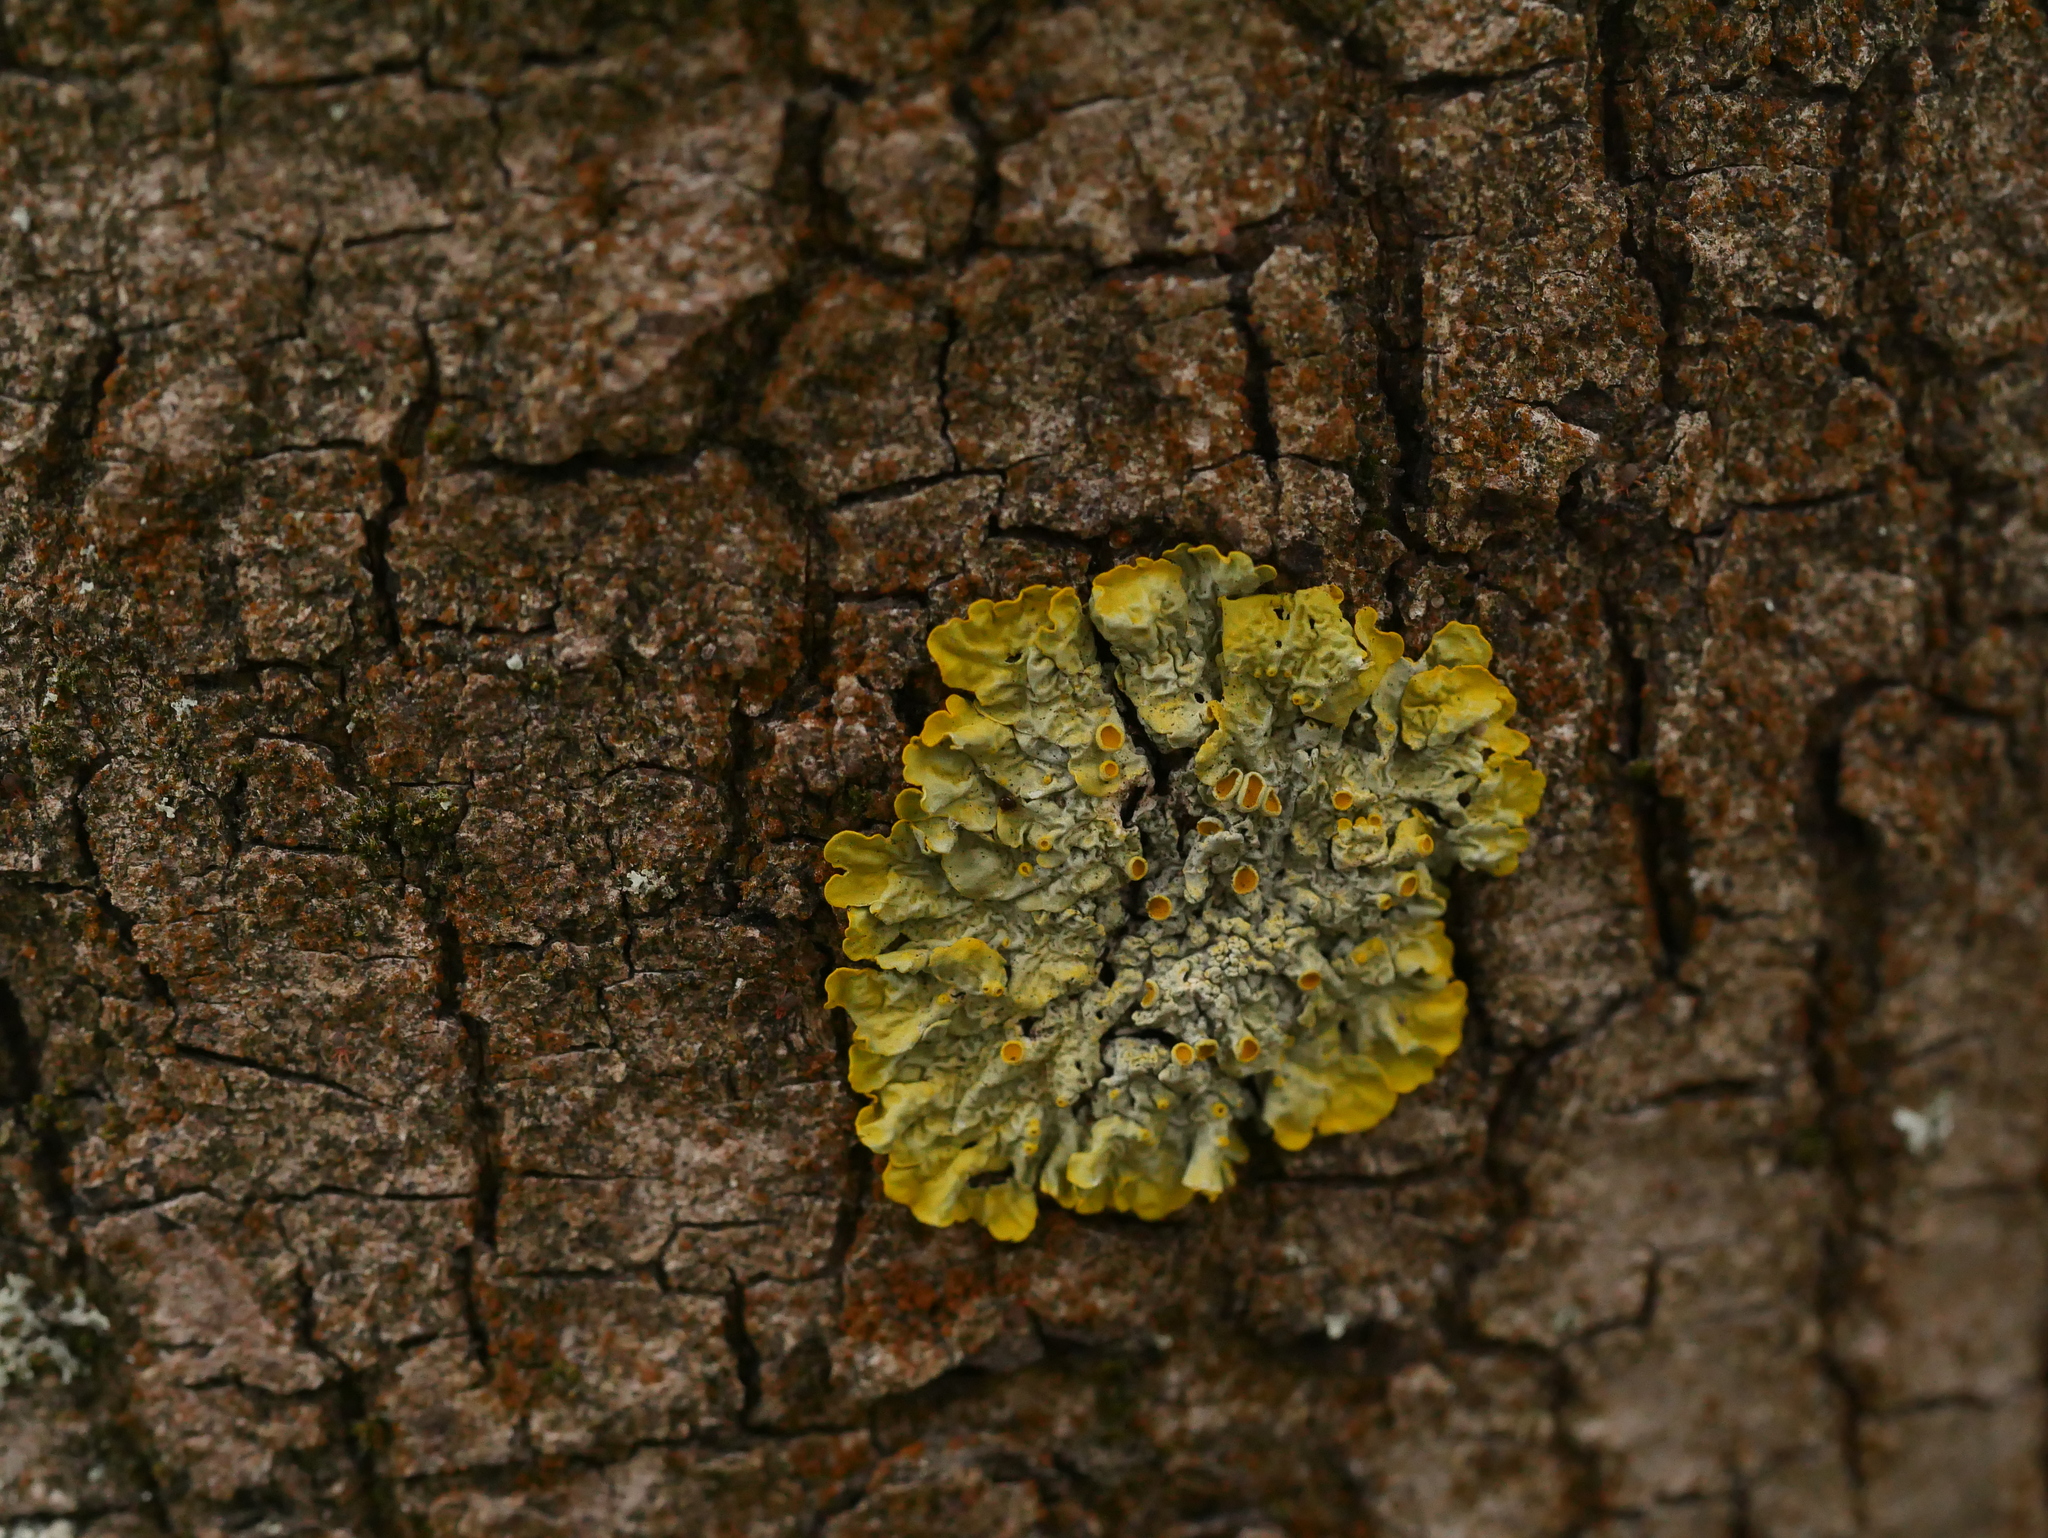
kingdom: Fungi
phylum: Ascomycota
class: Lecanoromycetes
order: Teloschistales
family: Teloschistaceae
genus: Xanthoria
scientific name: Xanthoria parietina
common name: Common orange lichen
